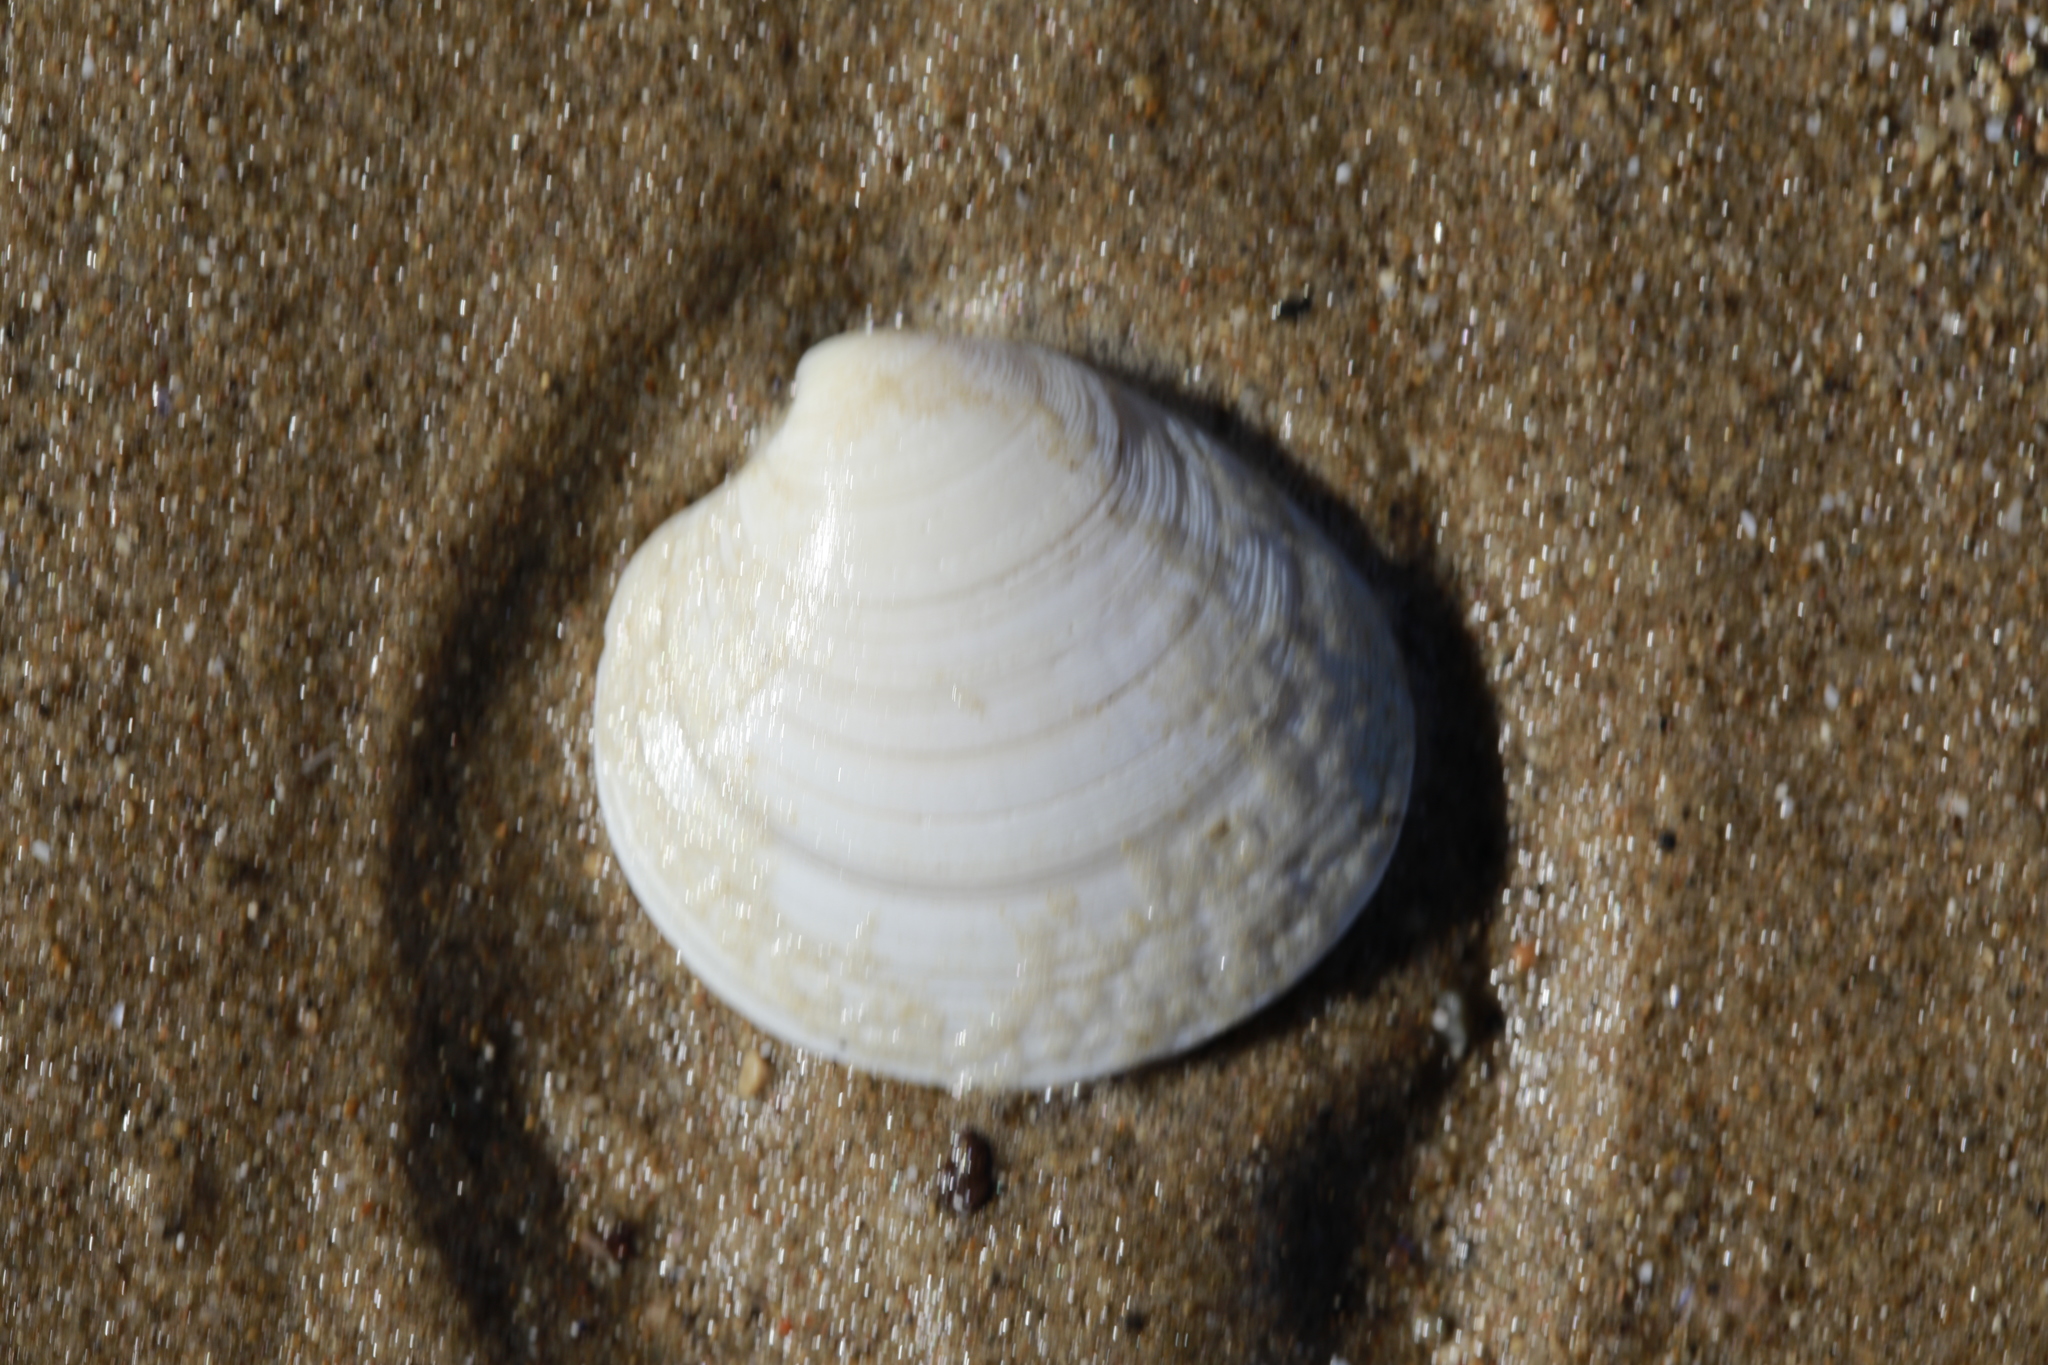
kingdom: Animalia
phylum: Mollusca
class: Bivalvia
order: Venerida
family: Veneridae
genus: Dosinia
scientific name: Dosinia exoleta
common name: Rayed artemis
